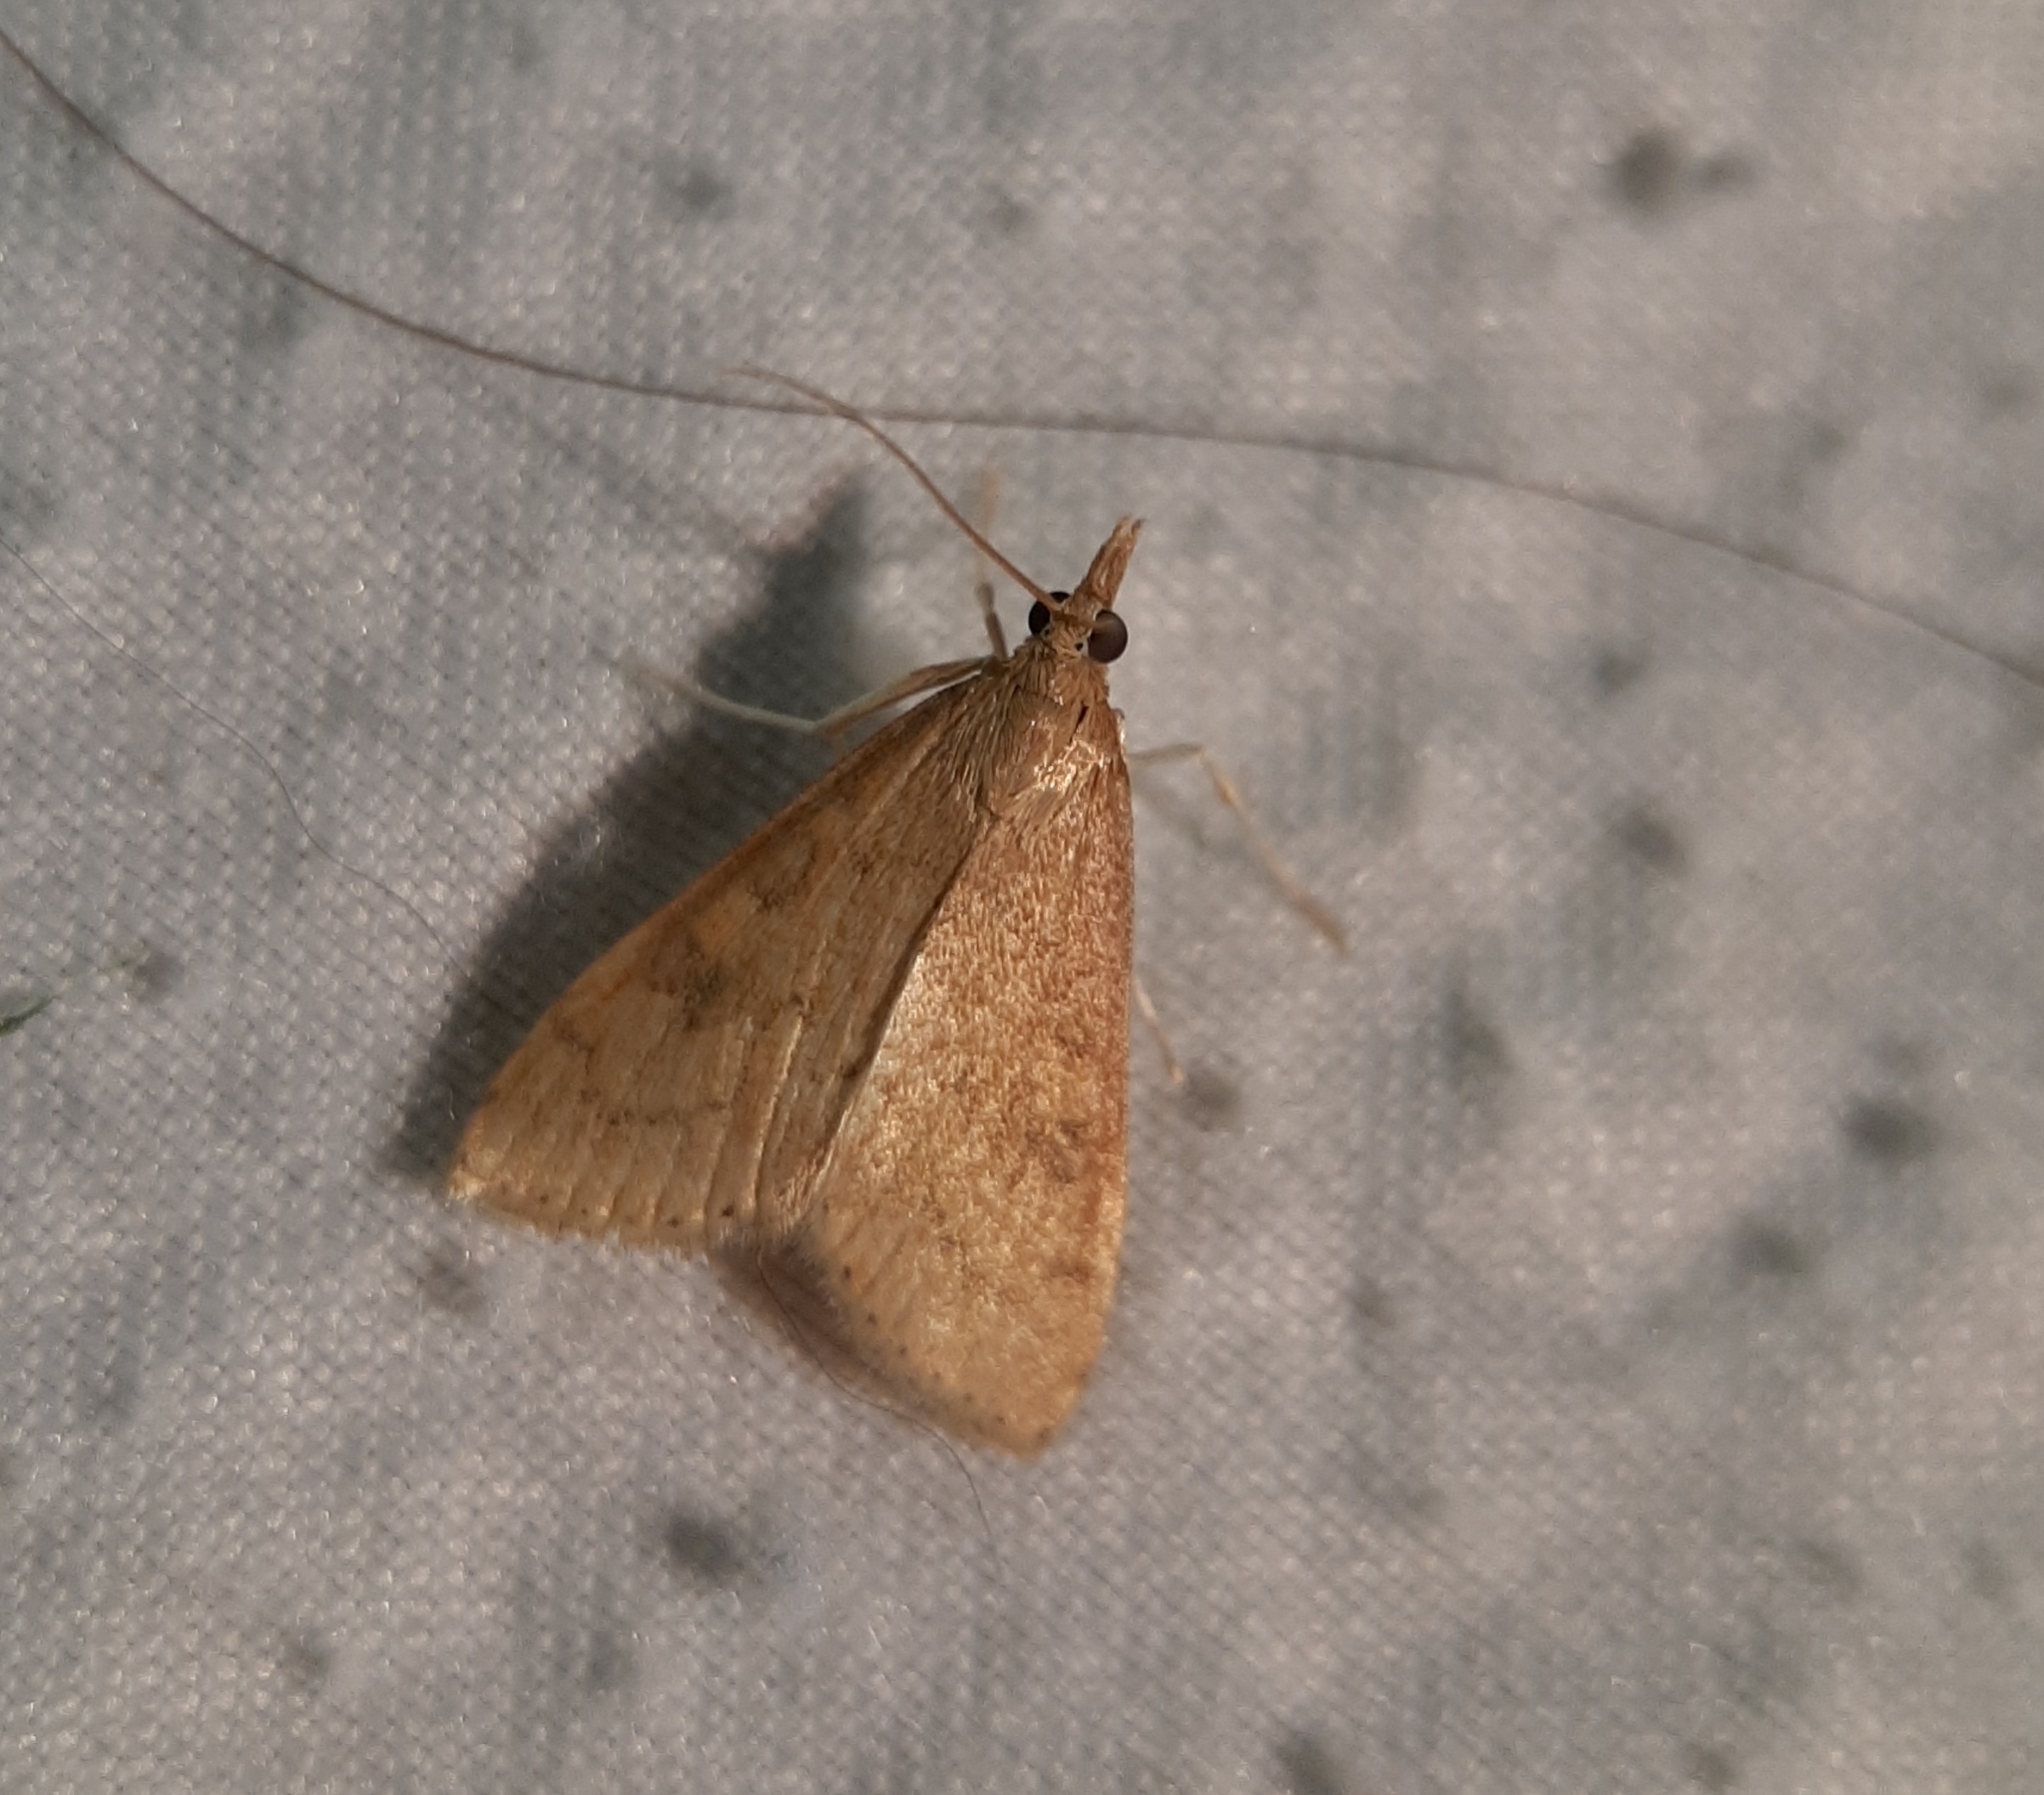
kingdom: Animalia
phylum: Arthropoda
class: Insecta
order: Lepidoptera
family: Crambidae
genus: Udea
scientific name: Udea rubigalis
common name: Celery leaftier moth
